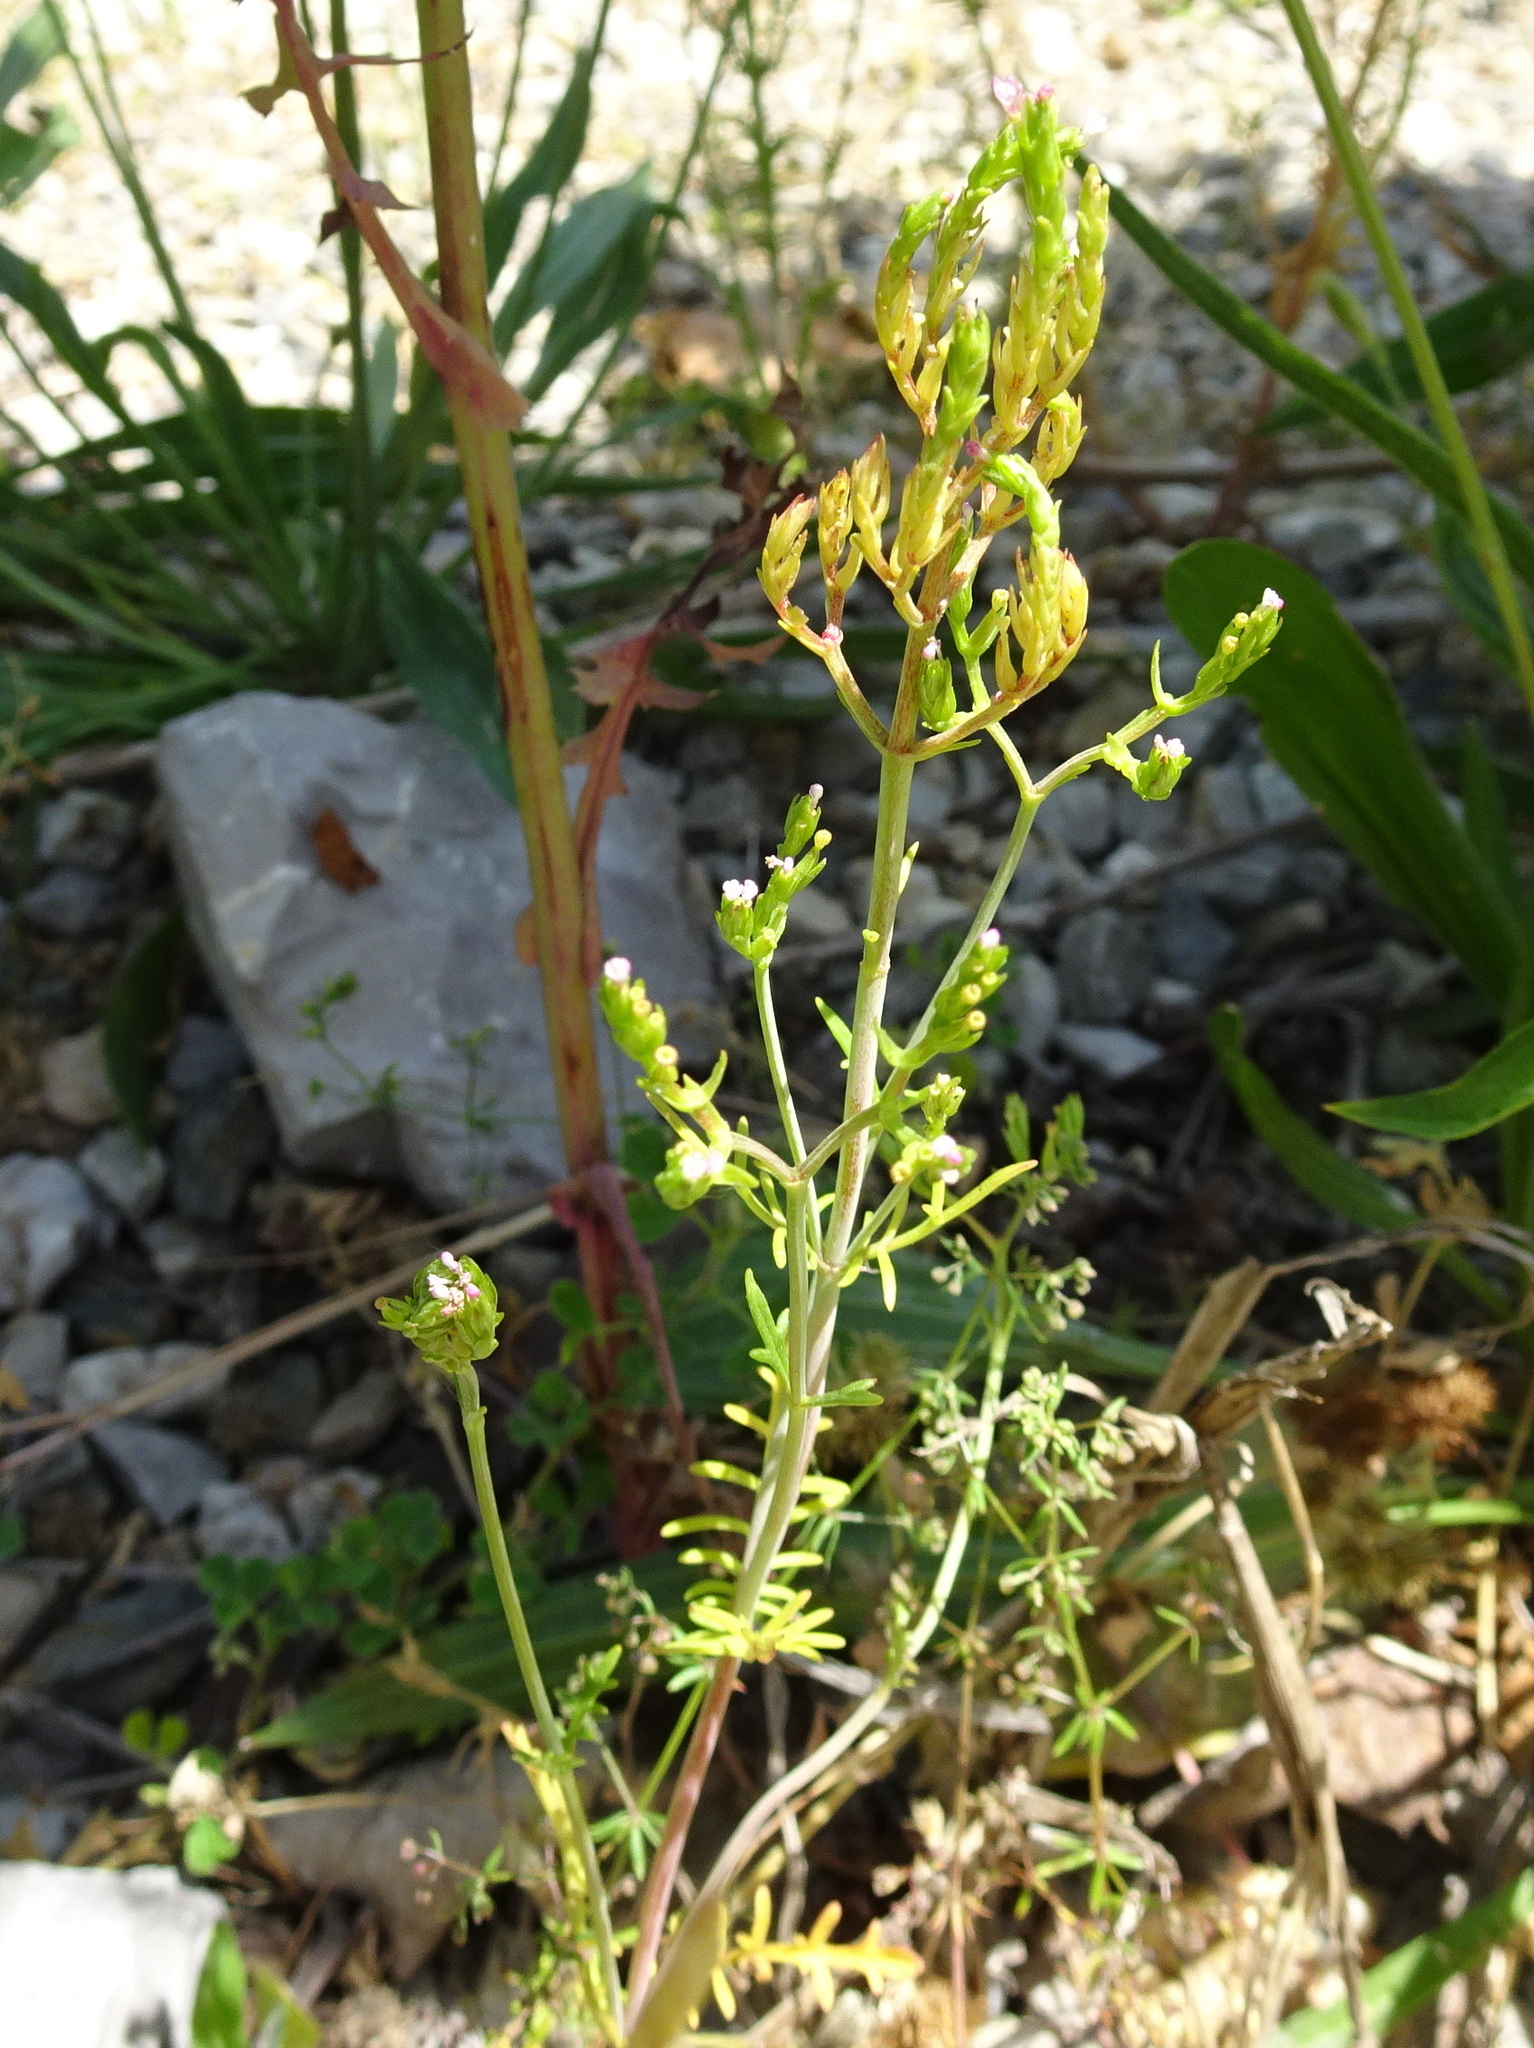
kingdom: Plantae
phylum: Tracheophyta
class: Magnoliopsida
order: Dipsacales
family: Caprifoliaceae
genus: Centranthus
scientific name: Centranthus calcitrapae
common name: Annual valerian
